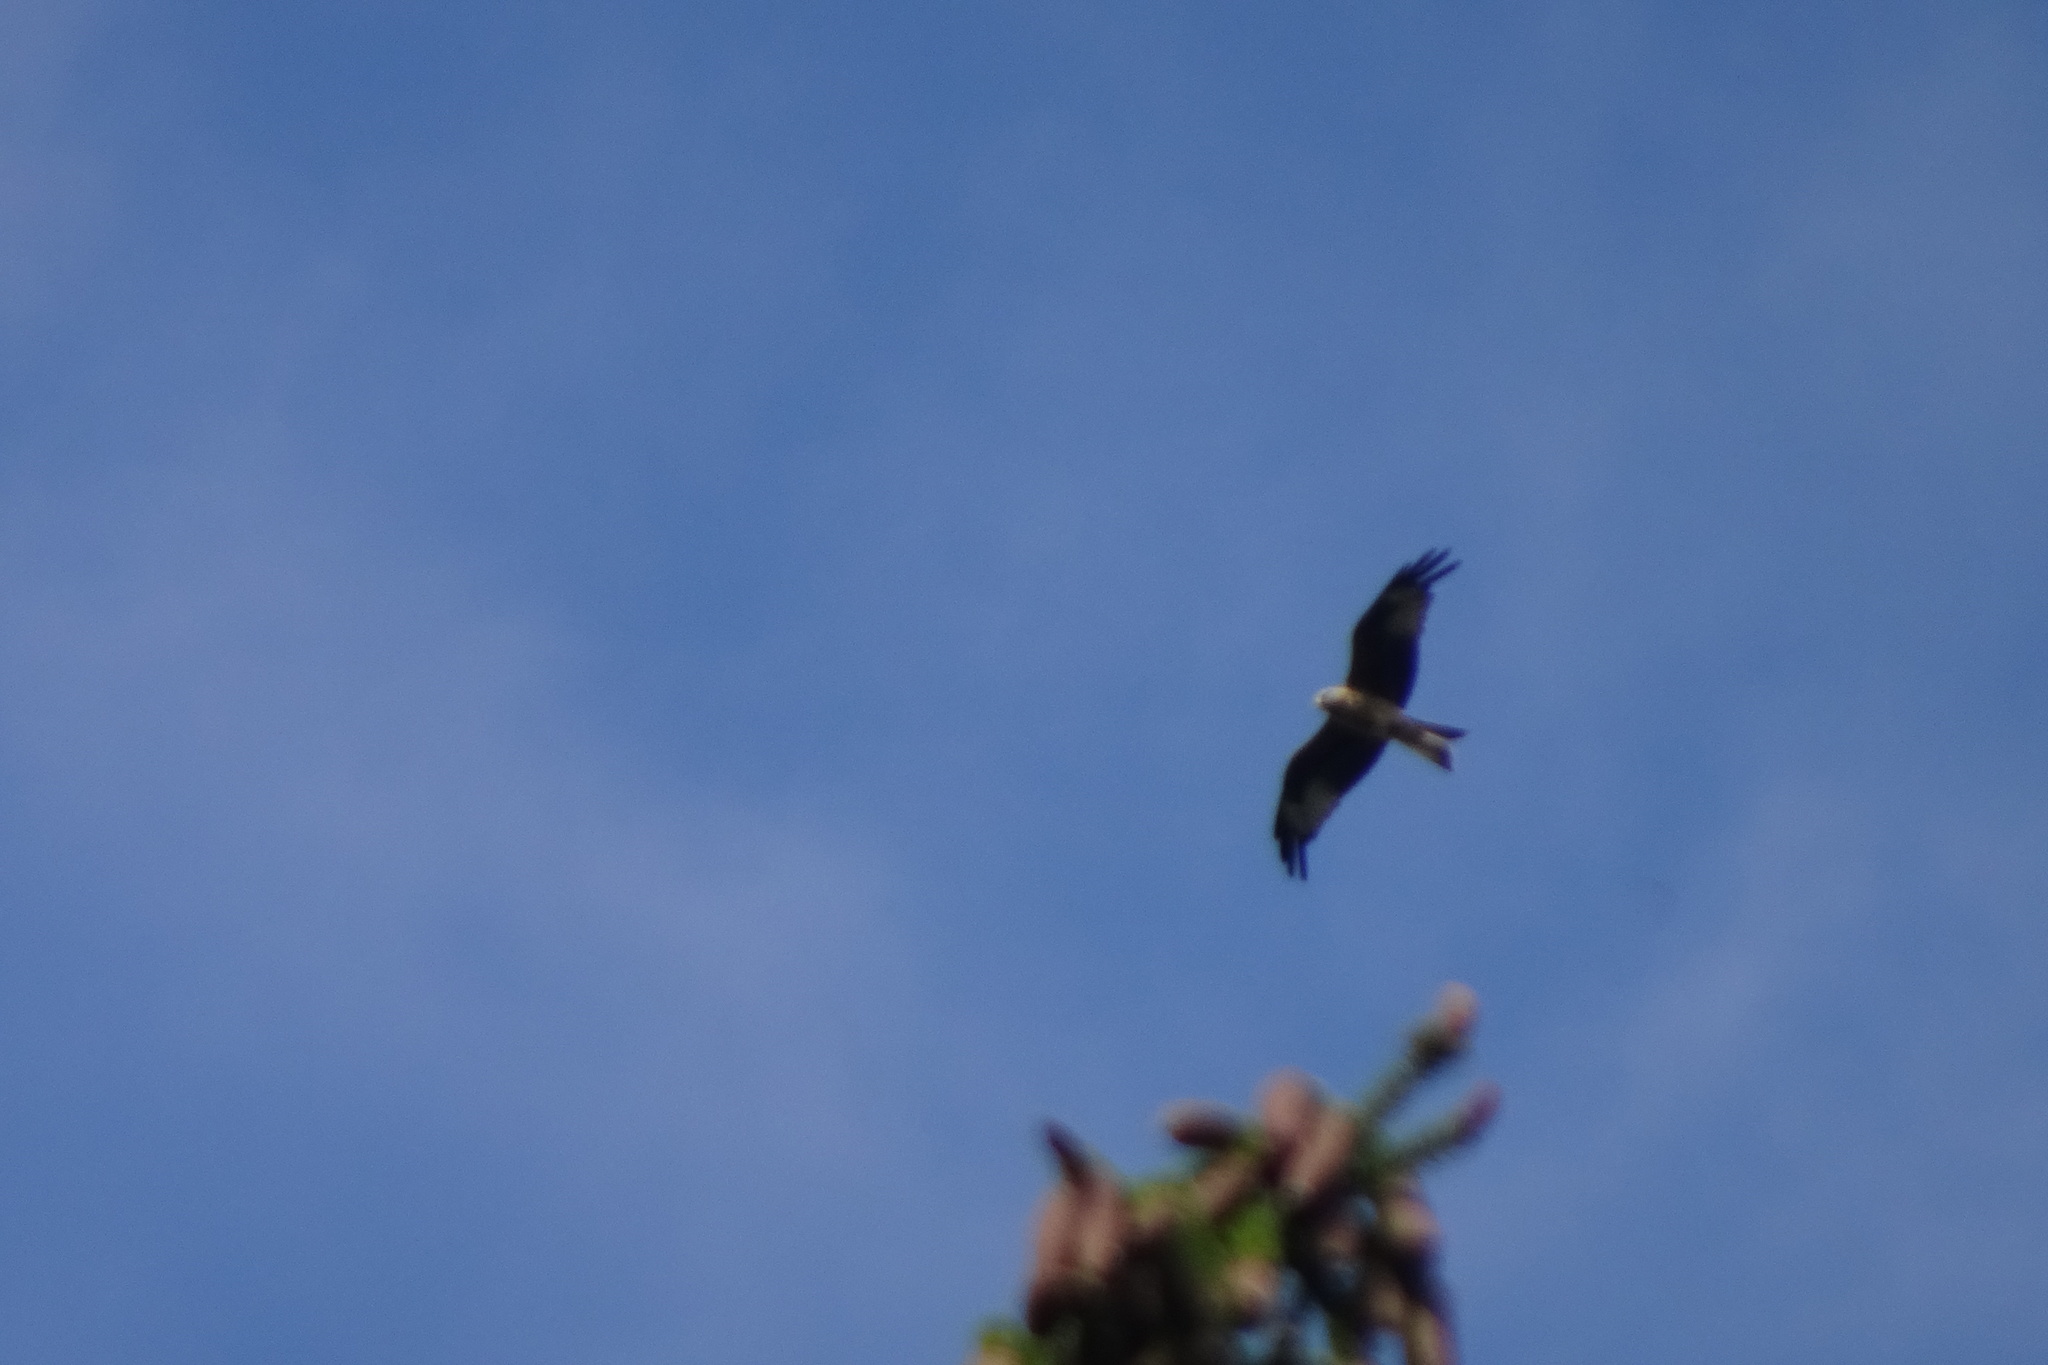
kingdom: Animalia
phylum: Chordata
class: Aves
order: Accipitriformes
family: Accipitridae
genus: Milvus
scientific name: Milvus milvus
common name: Red kite
